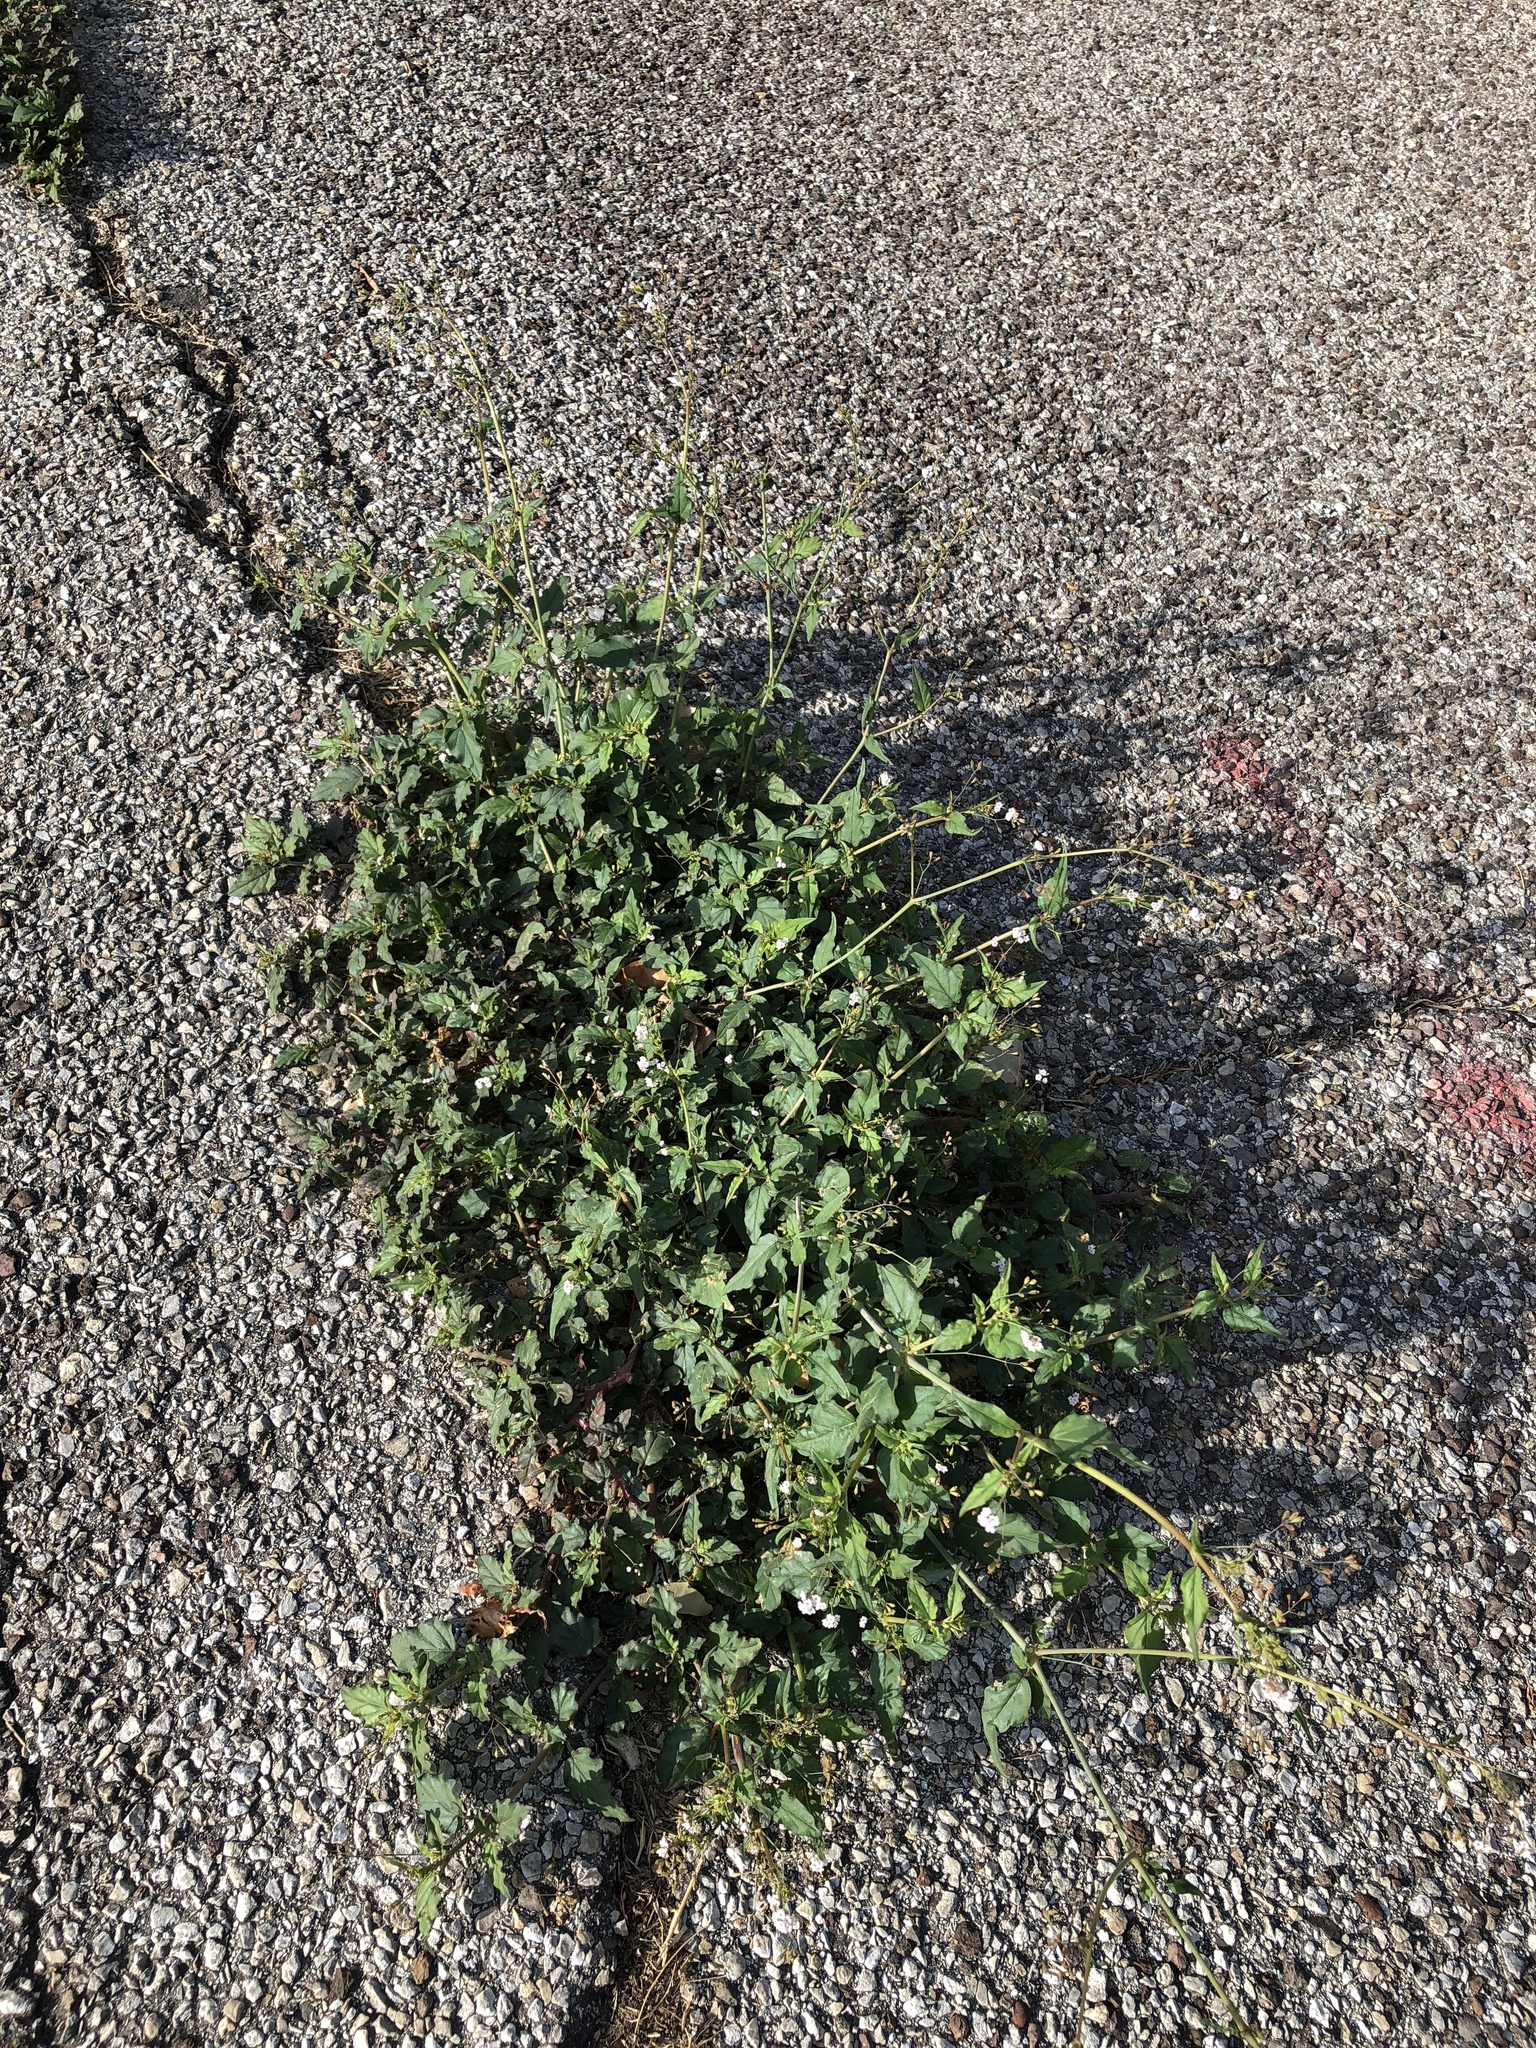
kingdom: Plantae
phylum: Tracheophyta
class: Magnoliopsida
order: Caryophyllales
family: Nyctaginaceae
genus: Boerhavia
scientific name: Boerhavia erecta
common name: Erect spiderling
